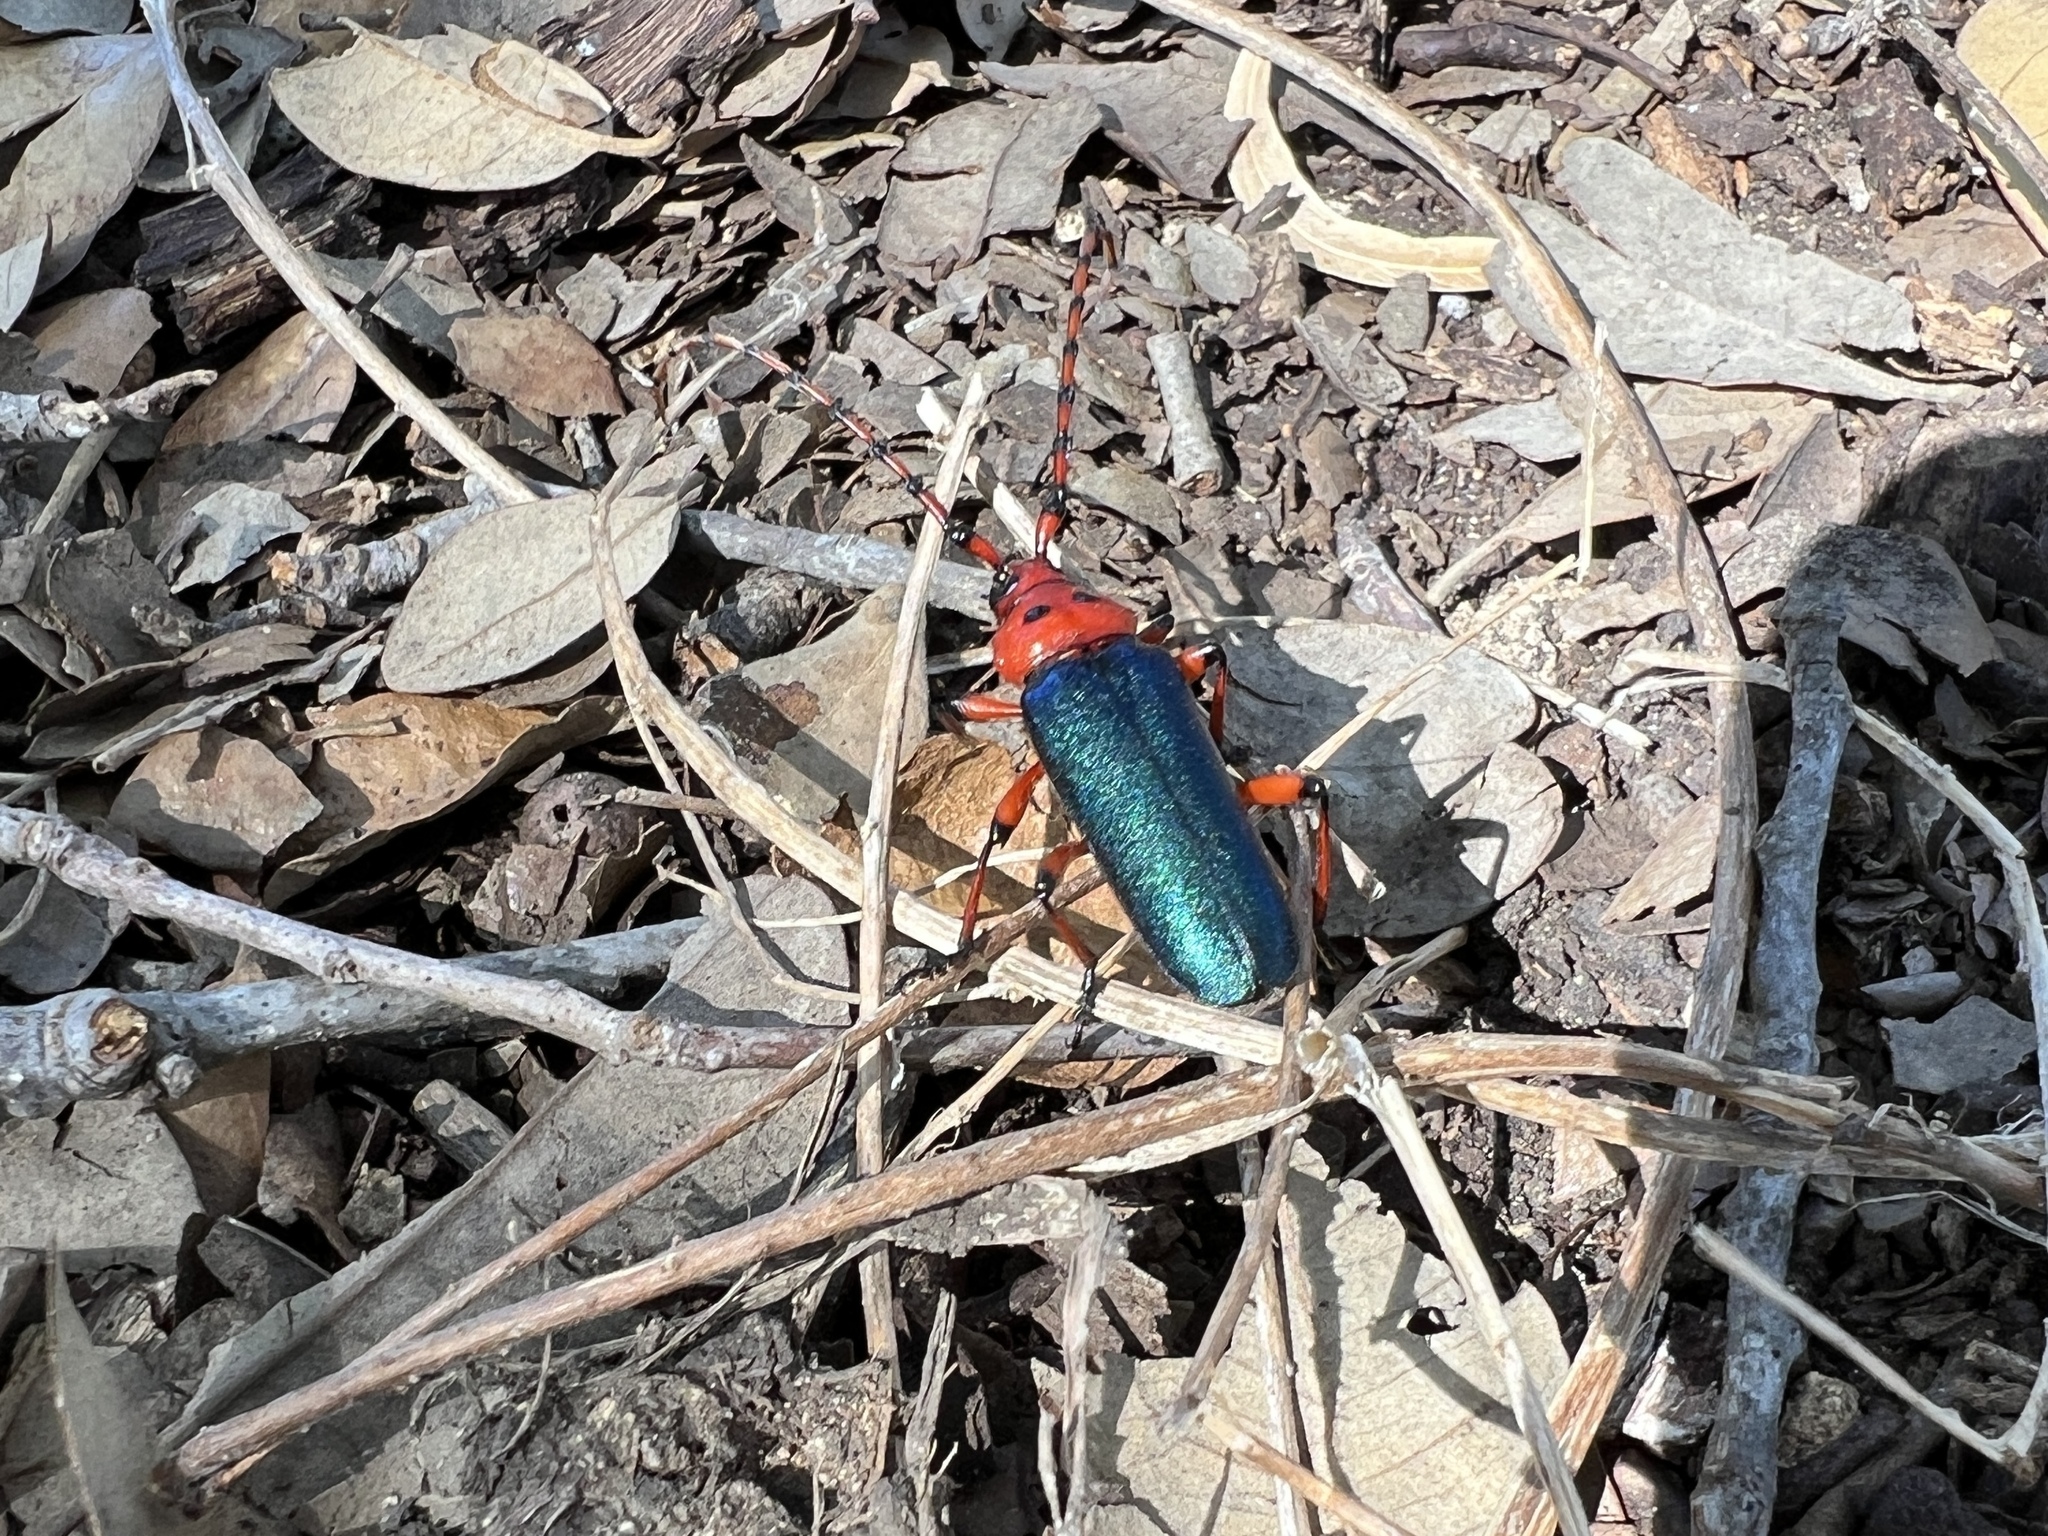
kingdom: Animalia
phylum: Arthropoda
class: Insecta
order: Coleoptera
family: Cerambycidae
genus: Stenaspis
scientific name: Stenaspis verticalis
